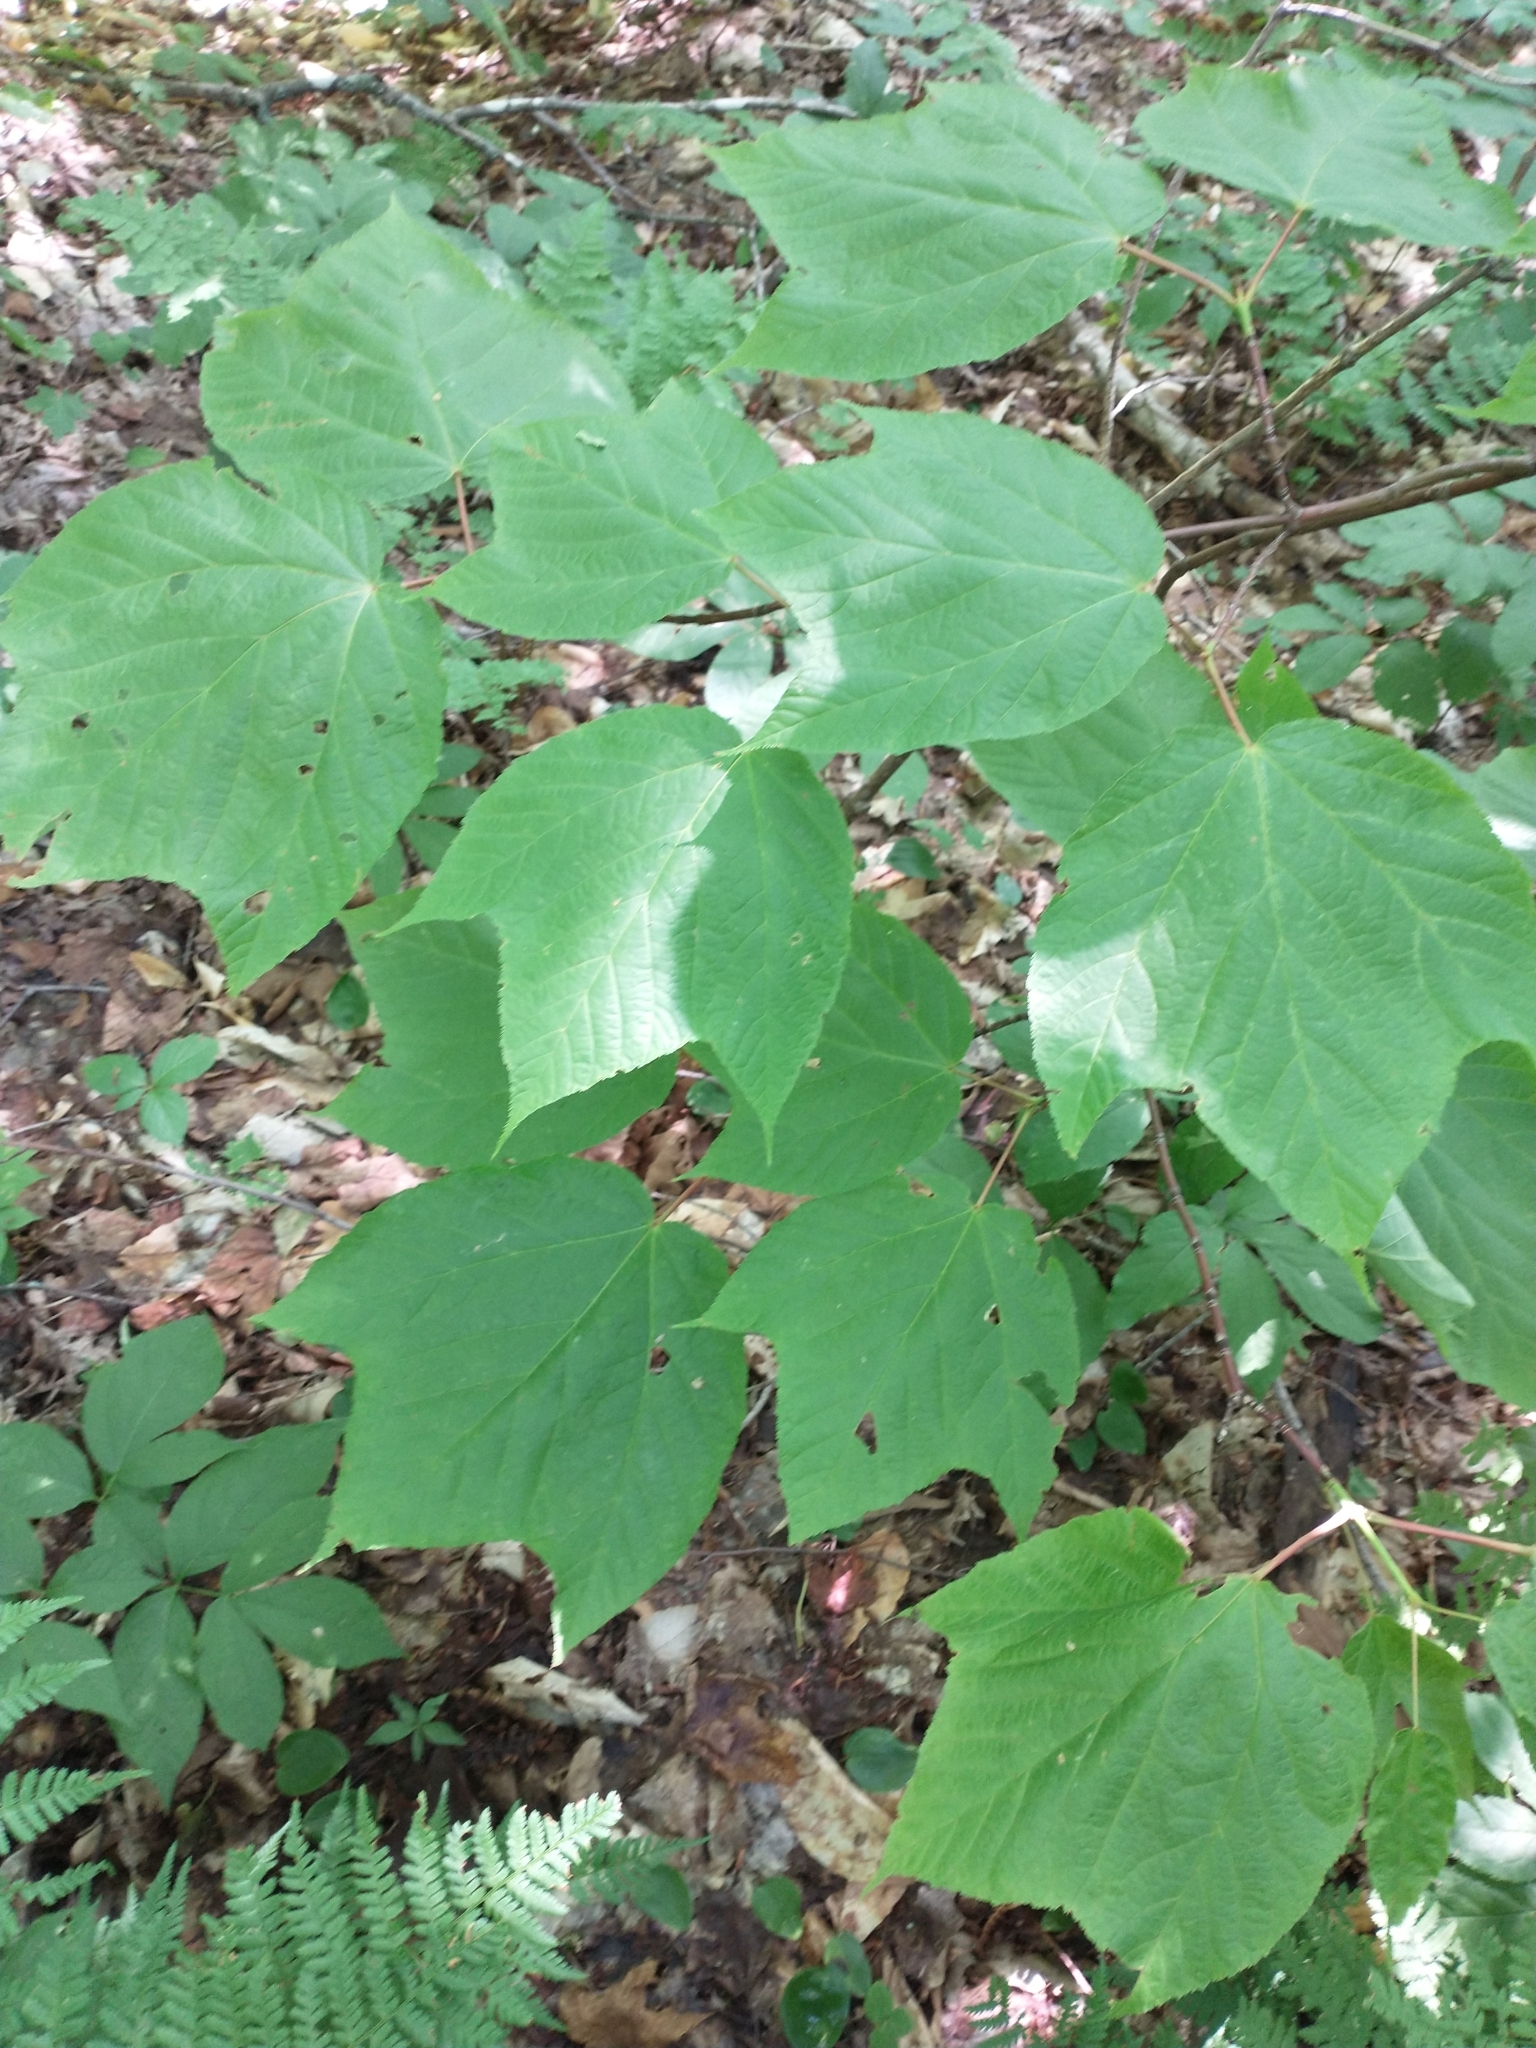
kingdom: Plantae
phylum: Tracheophyta
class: Magnoliopsida
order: Sapindales
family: Sapindaceae
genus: Acer
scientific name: Acer pensylvanicum
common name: Moosewood
